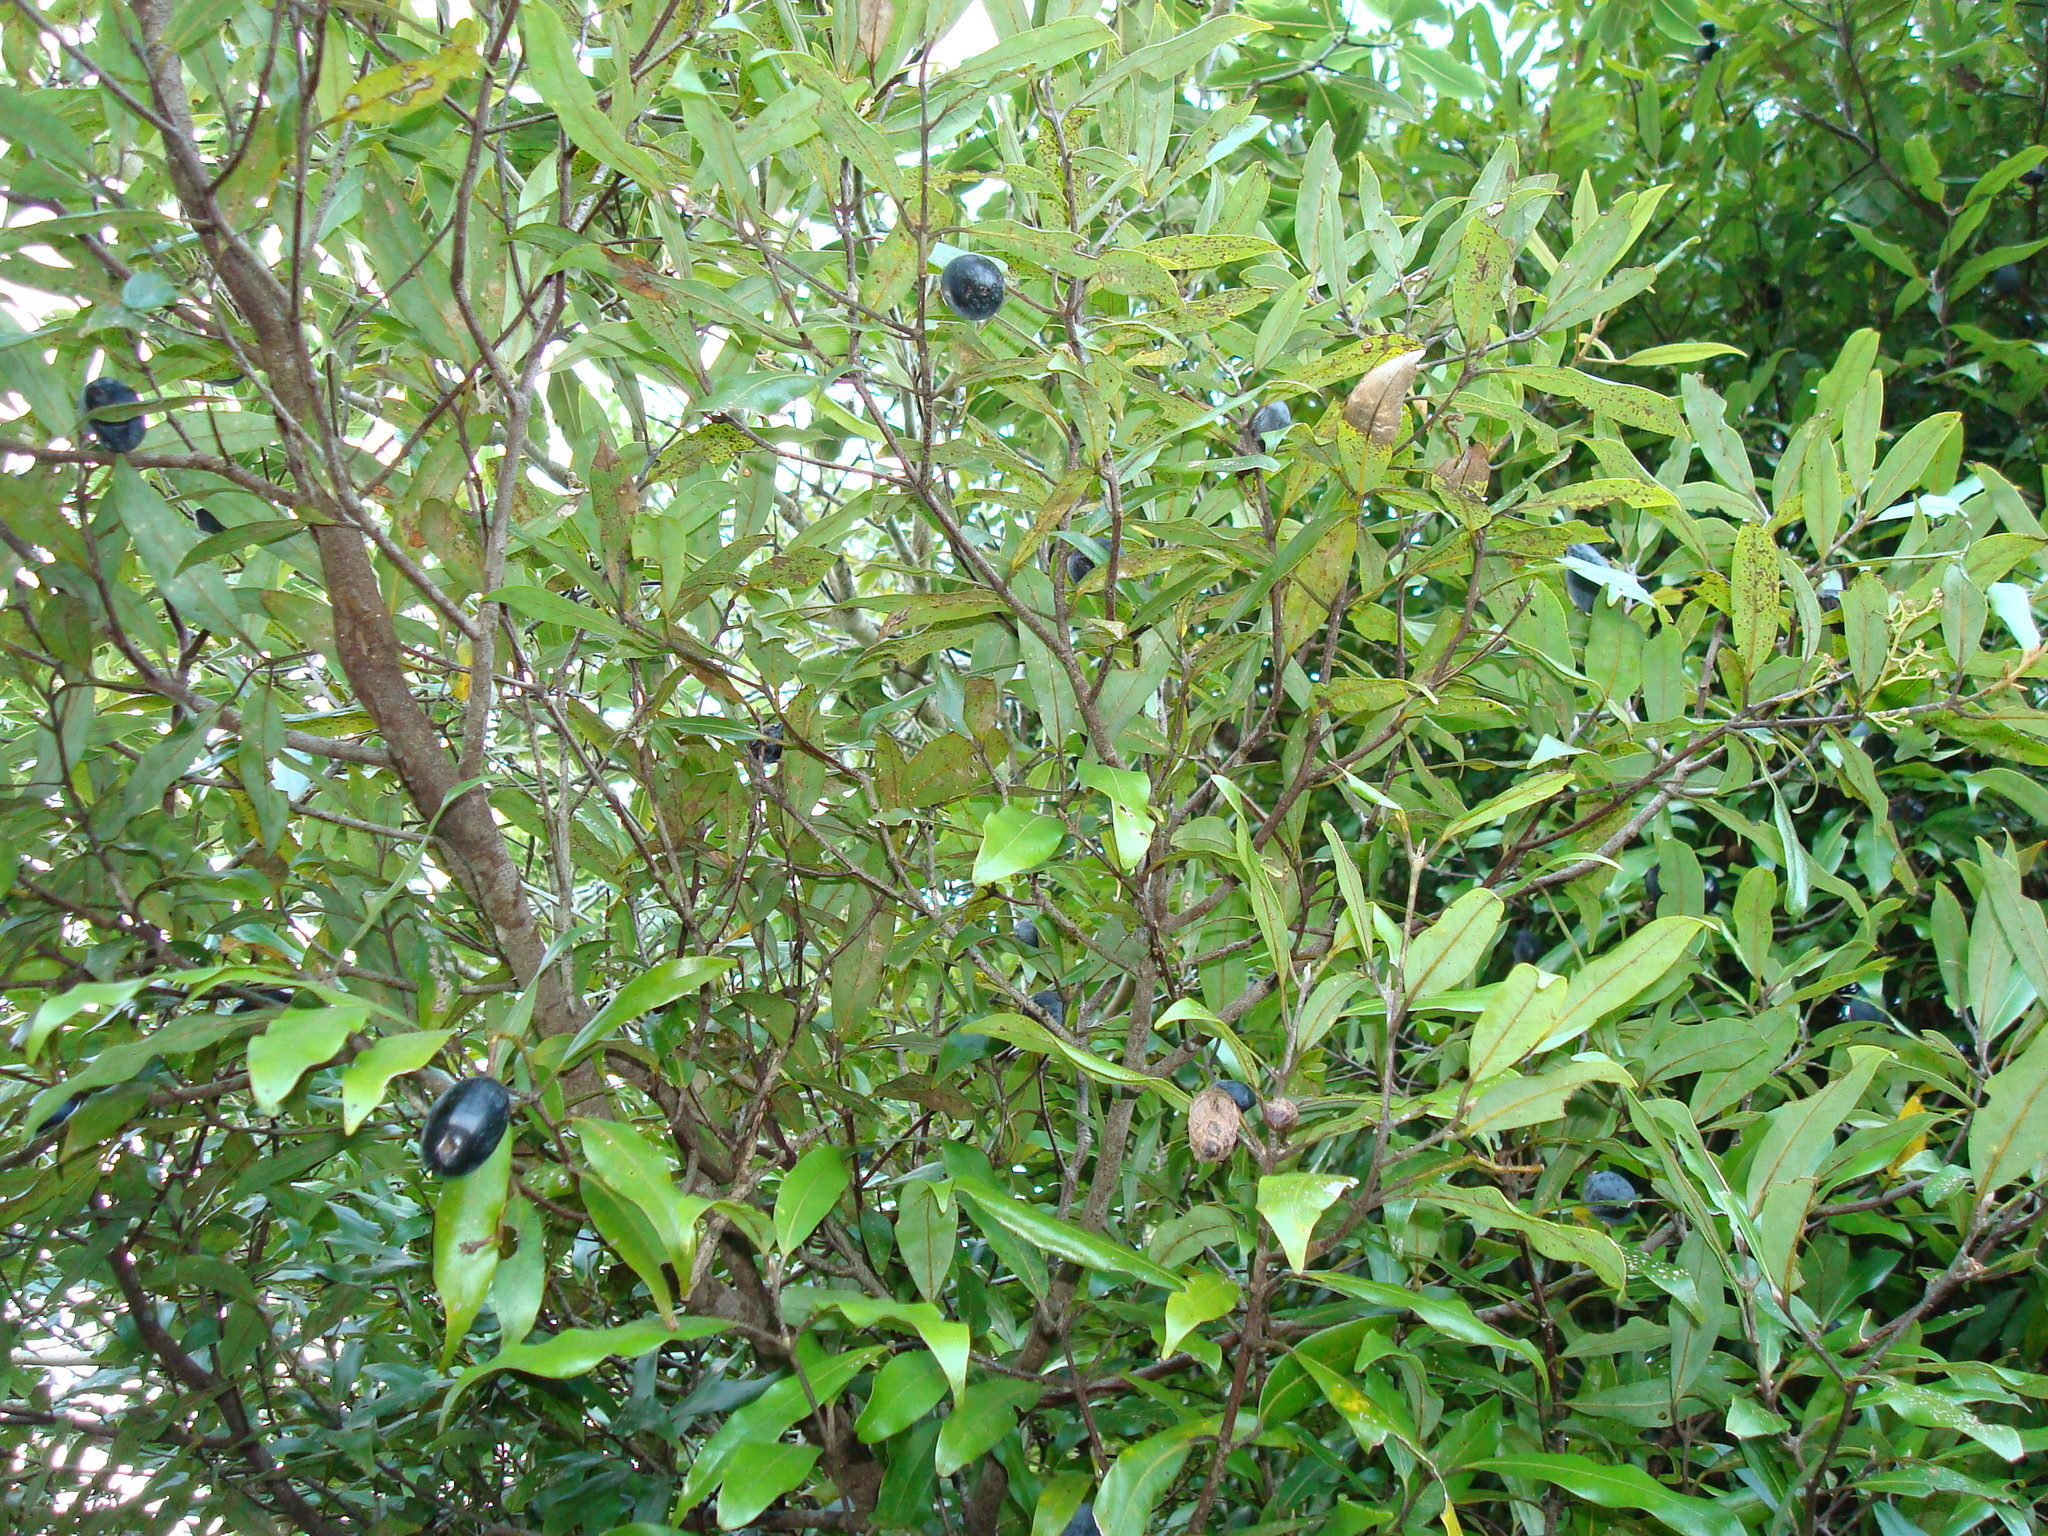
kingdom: Plantae
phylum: Tracheophyta
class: Magnoliopsida
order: Laurales
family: Lauraceae
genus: Beilschmiedia
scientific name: Beilschmiedia tawa
